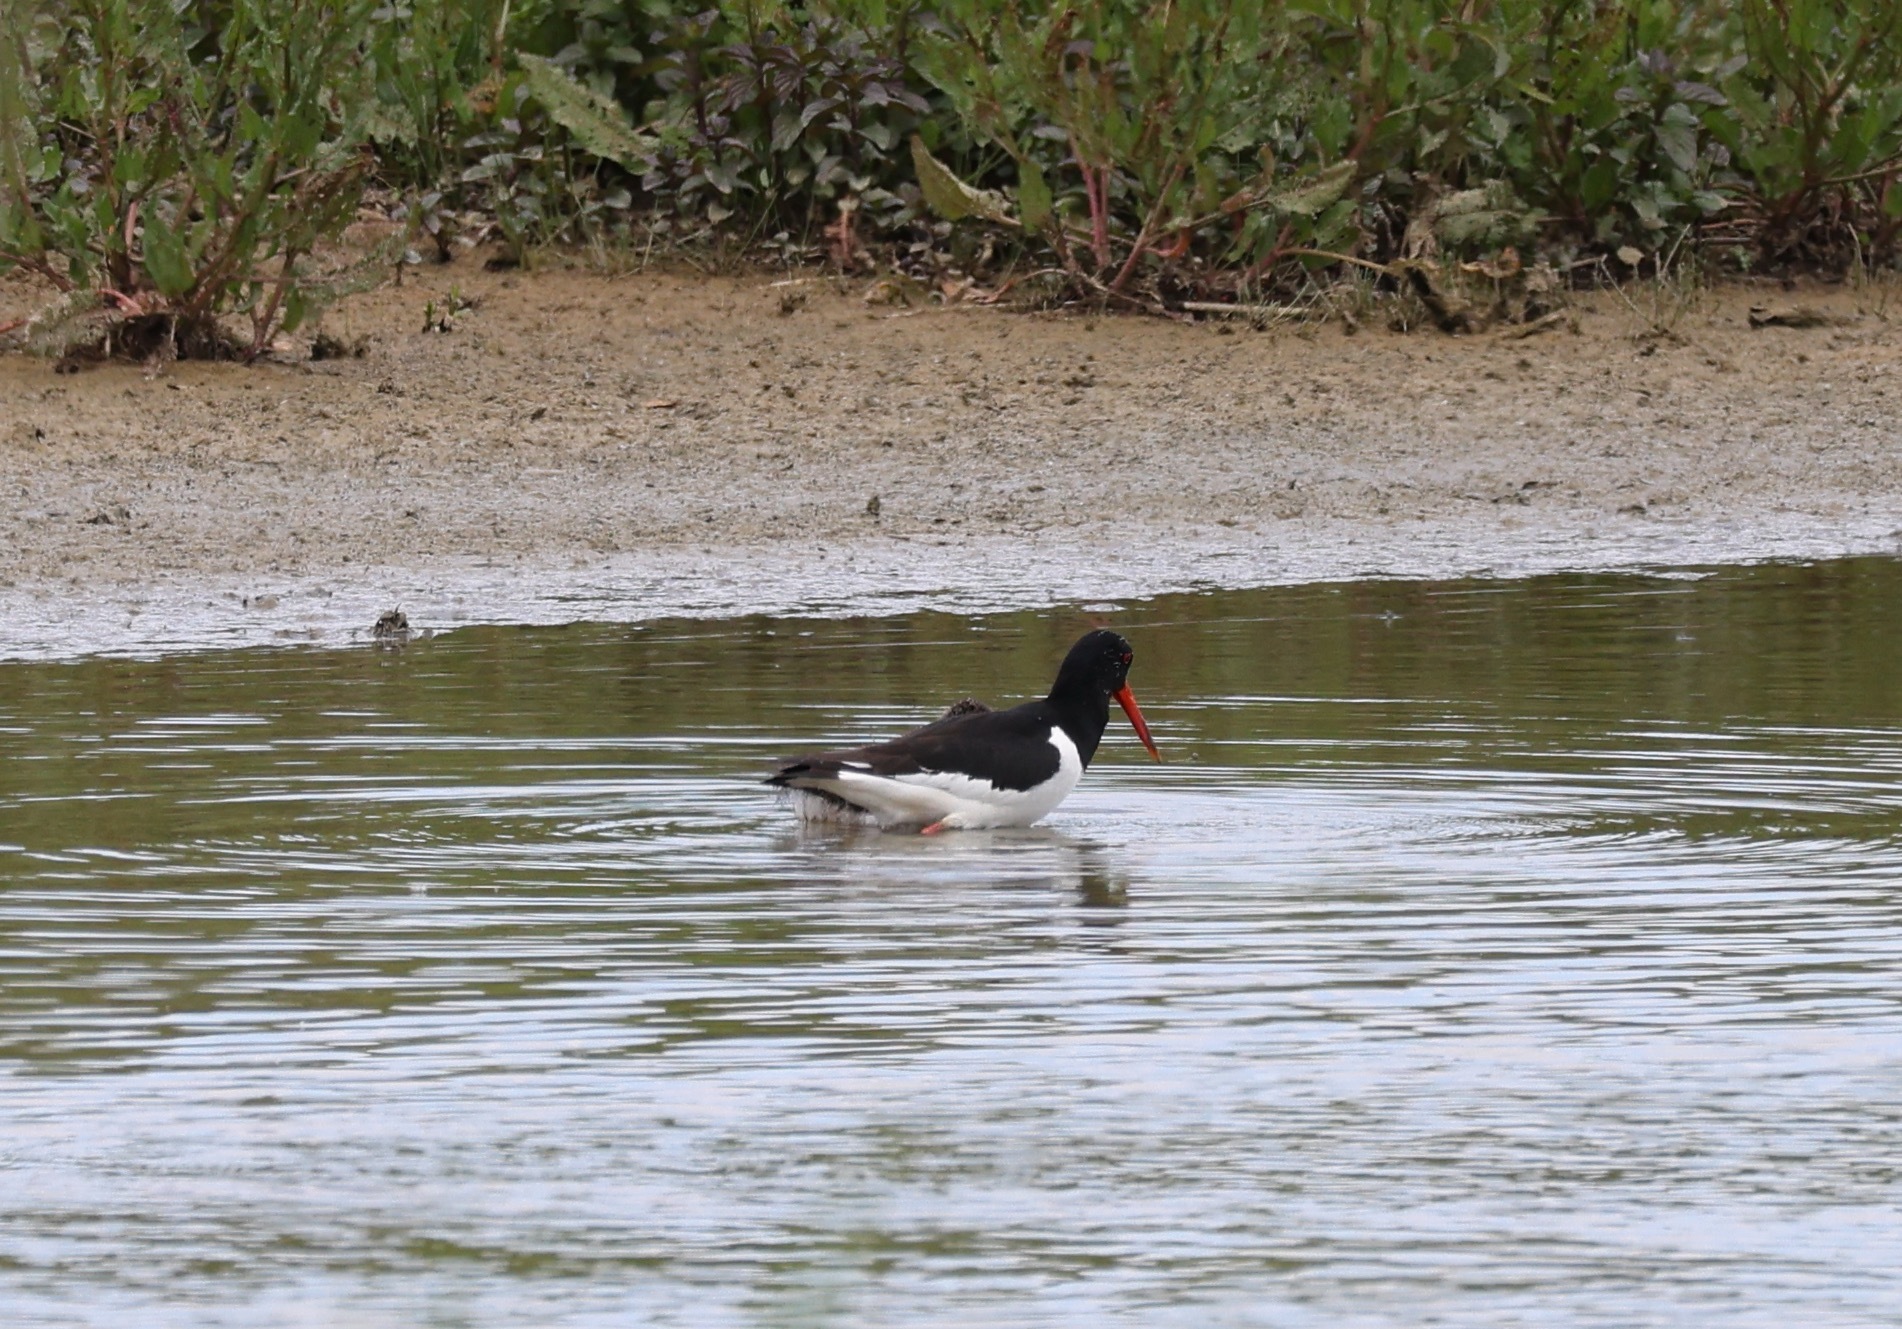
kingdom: Animalia
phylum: Chordata
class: Aves
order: Charadriiformes
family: Haematopodidae
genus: Haematopus
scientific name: Haematopus ostralegus
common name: Eurasian oystercatcher
